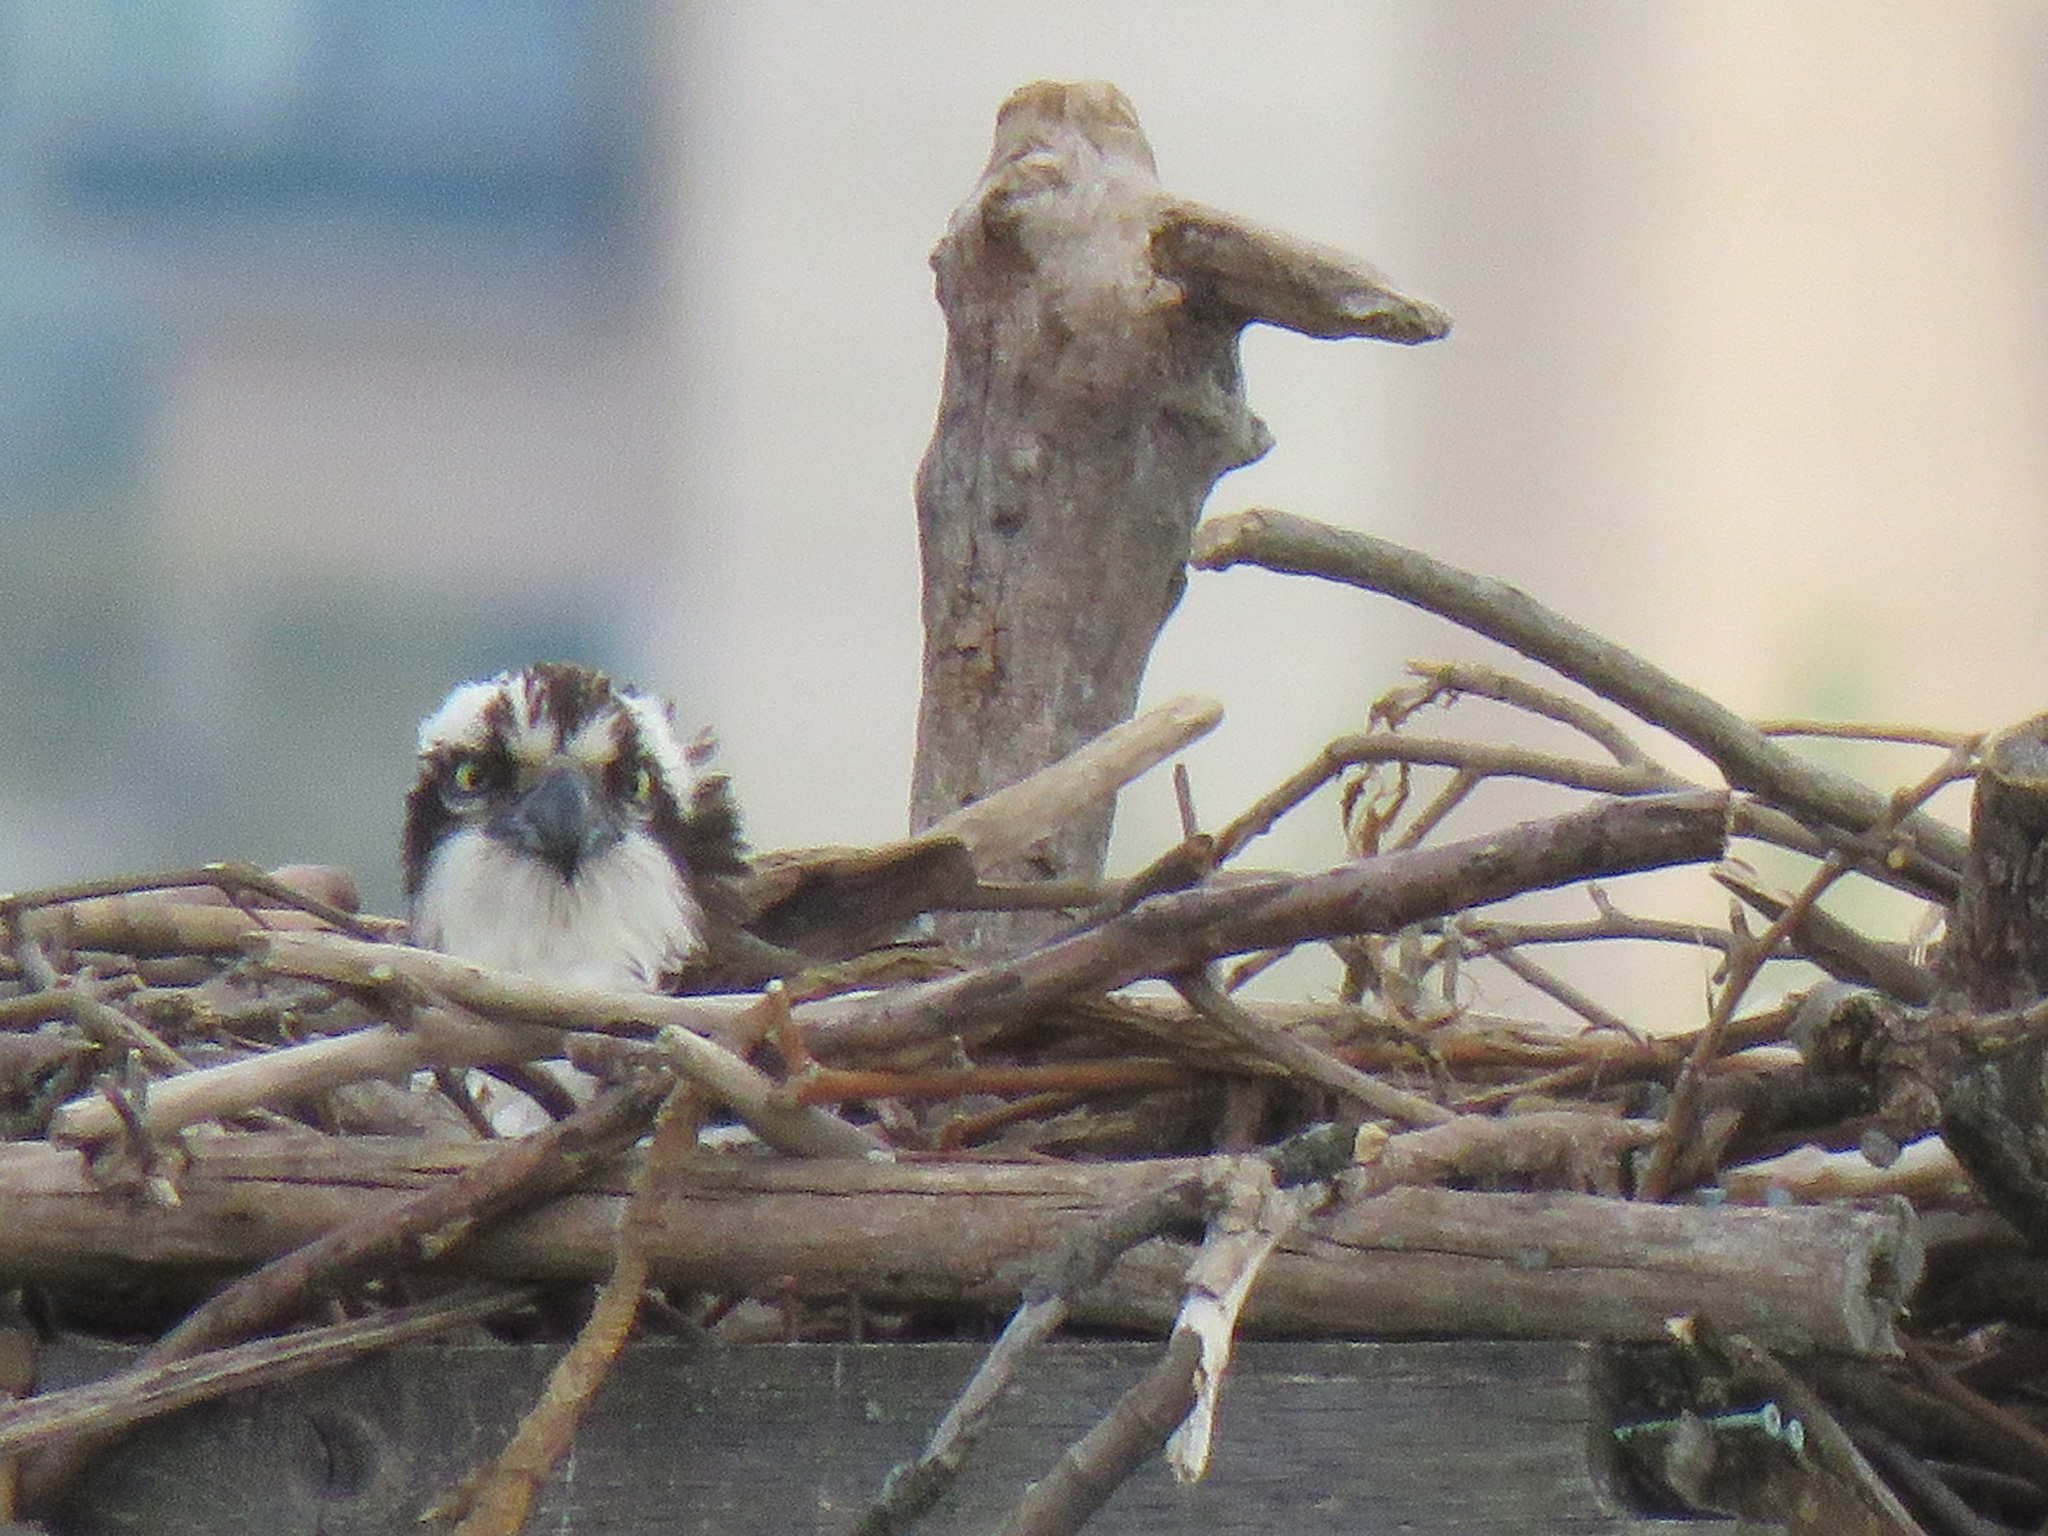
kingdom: Animalia
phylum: Chordata
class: Aves
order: Accipitriformes
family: Pandionidae
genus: Pandion
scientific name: Pandion haliaetus
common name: Osprey
